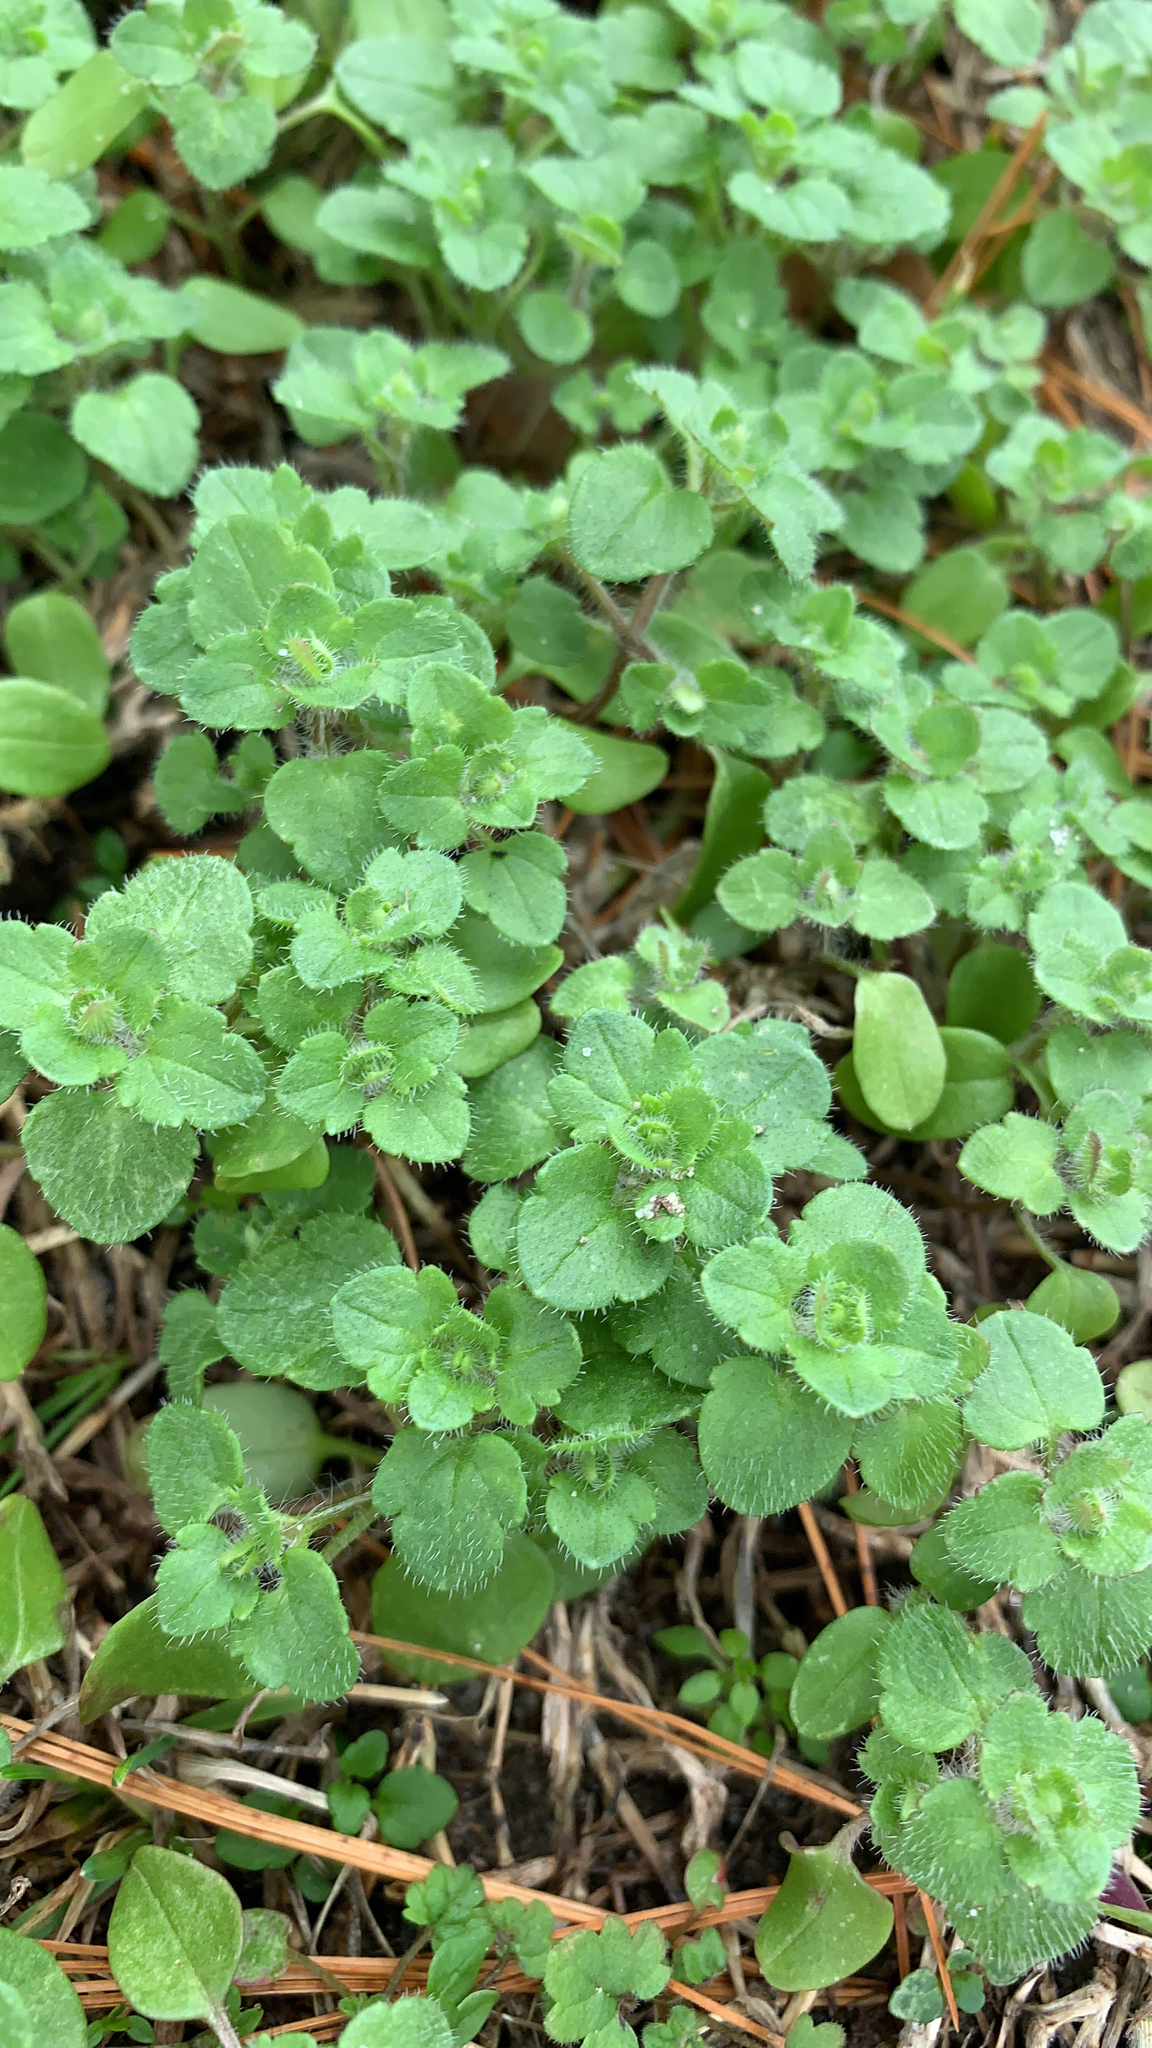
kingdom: Plantae
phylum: Tracheophyta
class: Magnoliopsida
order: Lamiales
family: Plantaginaceae
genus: Veronica
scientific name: Veronica hederifolia
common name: Ivy-leaved speedwell
